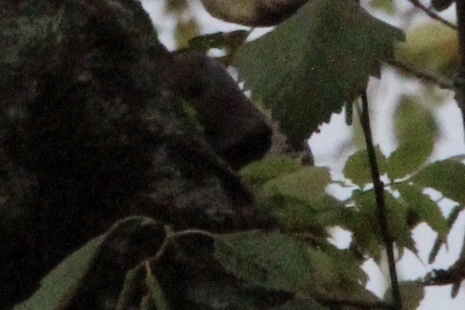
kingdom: Animalia
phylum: Chordata
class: Aves
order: Piciformes
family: Picidae
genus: Colaptes
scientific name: Colaptes auratus
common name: Northern flicker
